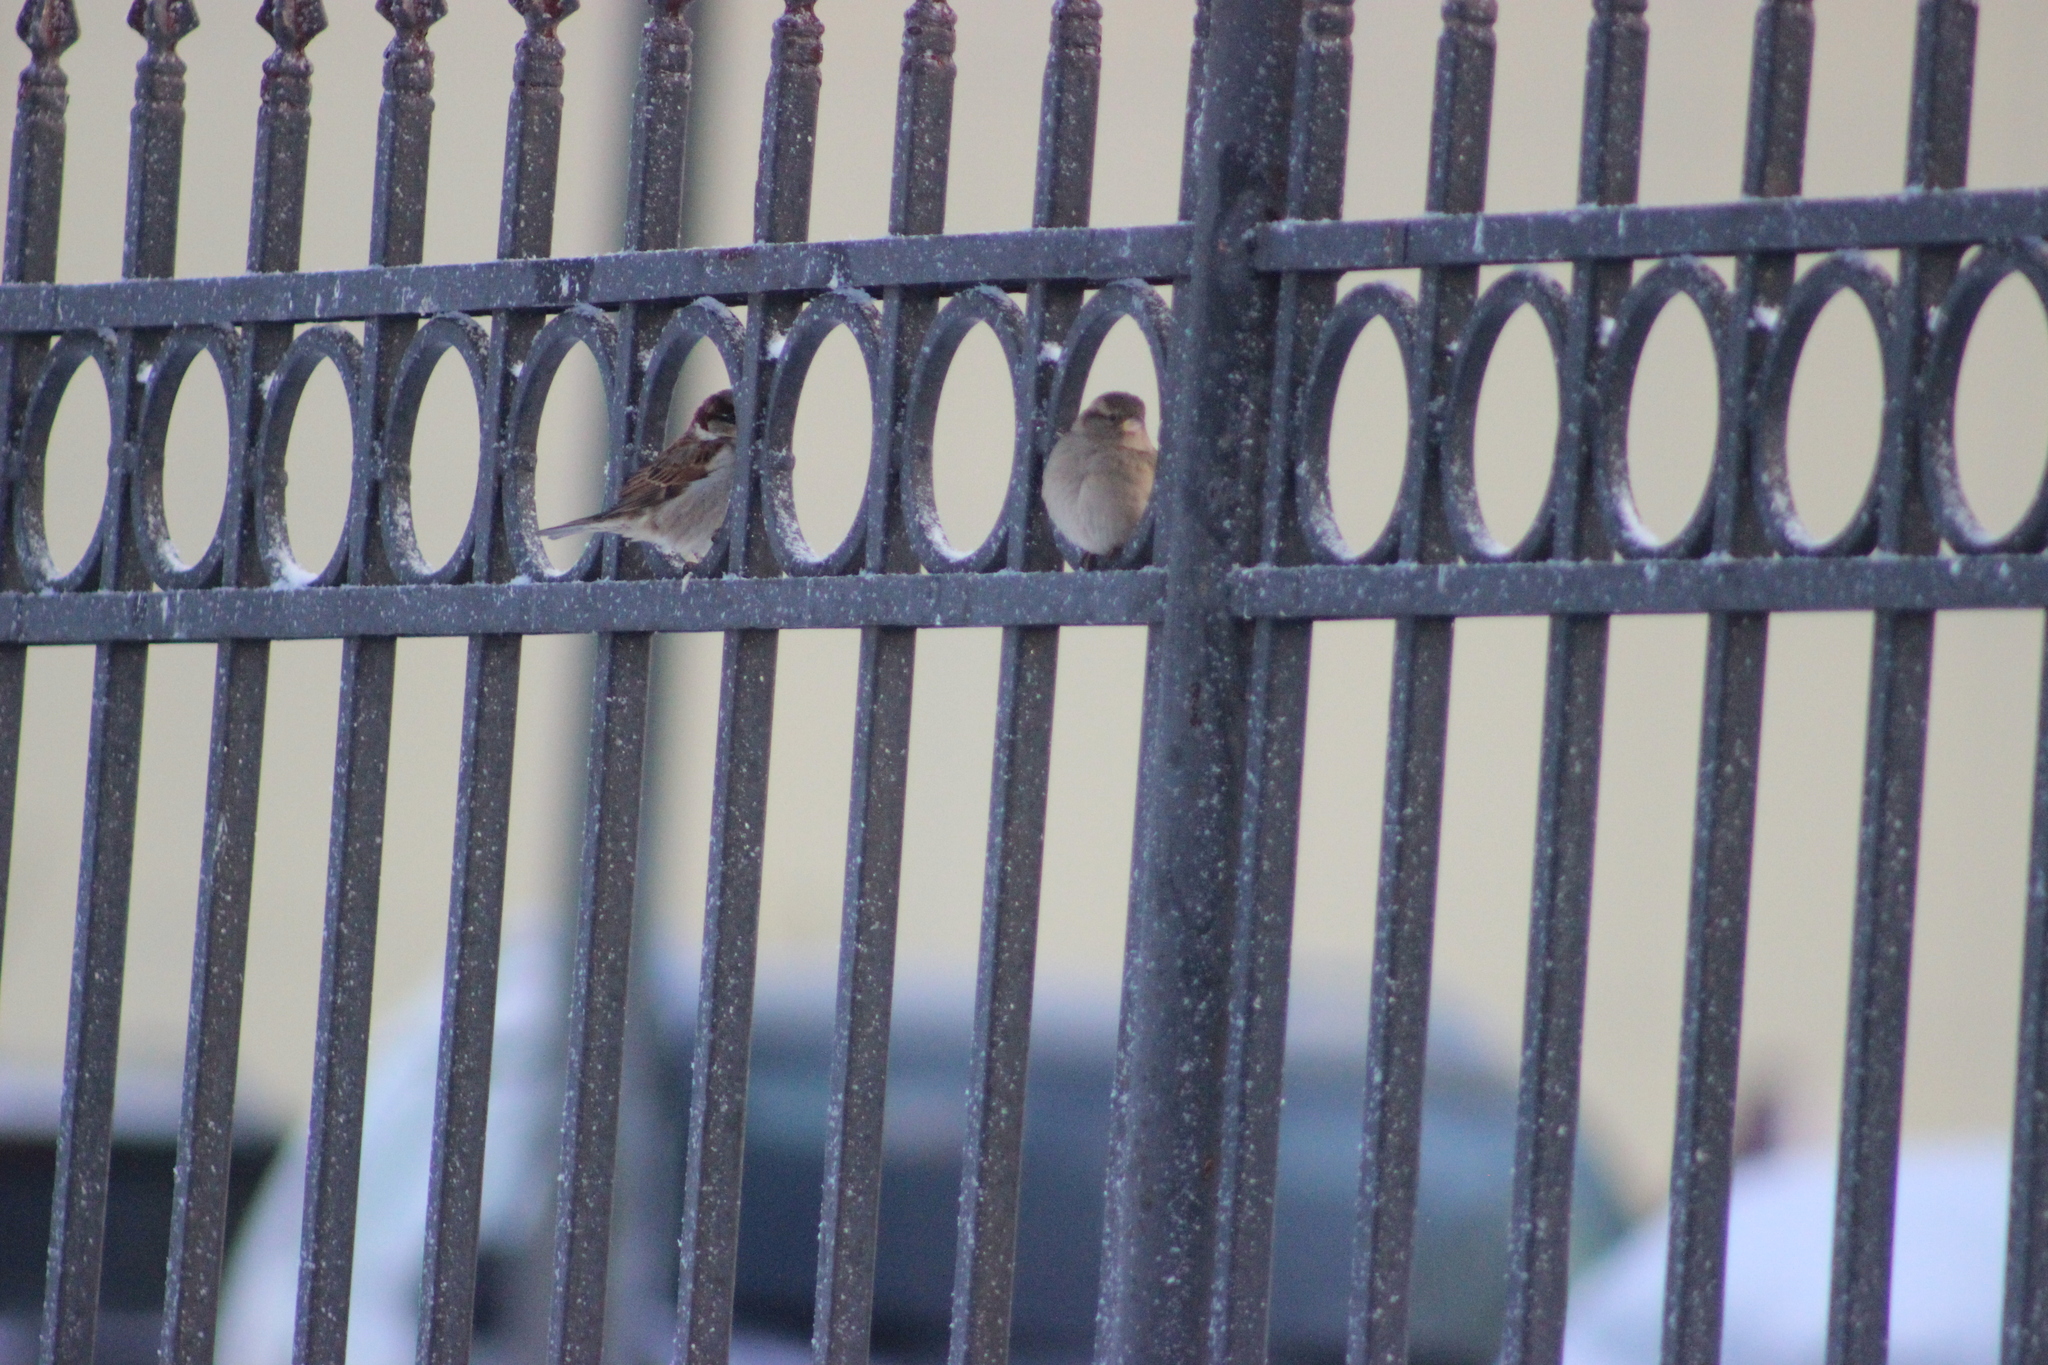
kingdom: Animalia
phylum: Chordata
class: Aves
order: Passeriformes
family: Passeridae
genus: Passer
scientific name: Passer domesticus
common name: House sparrow
